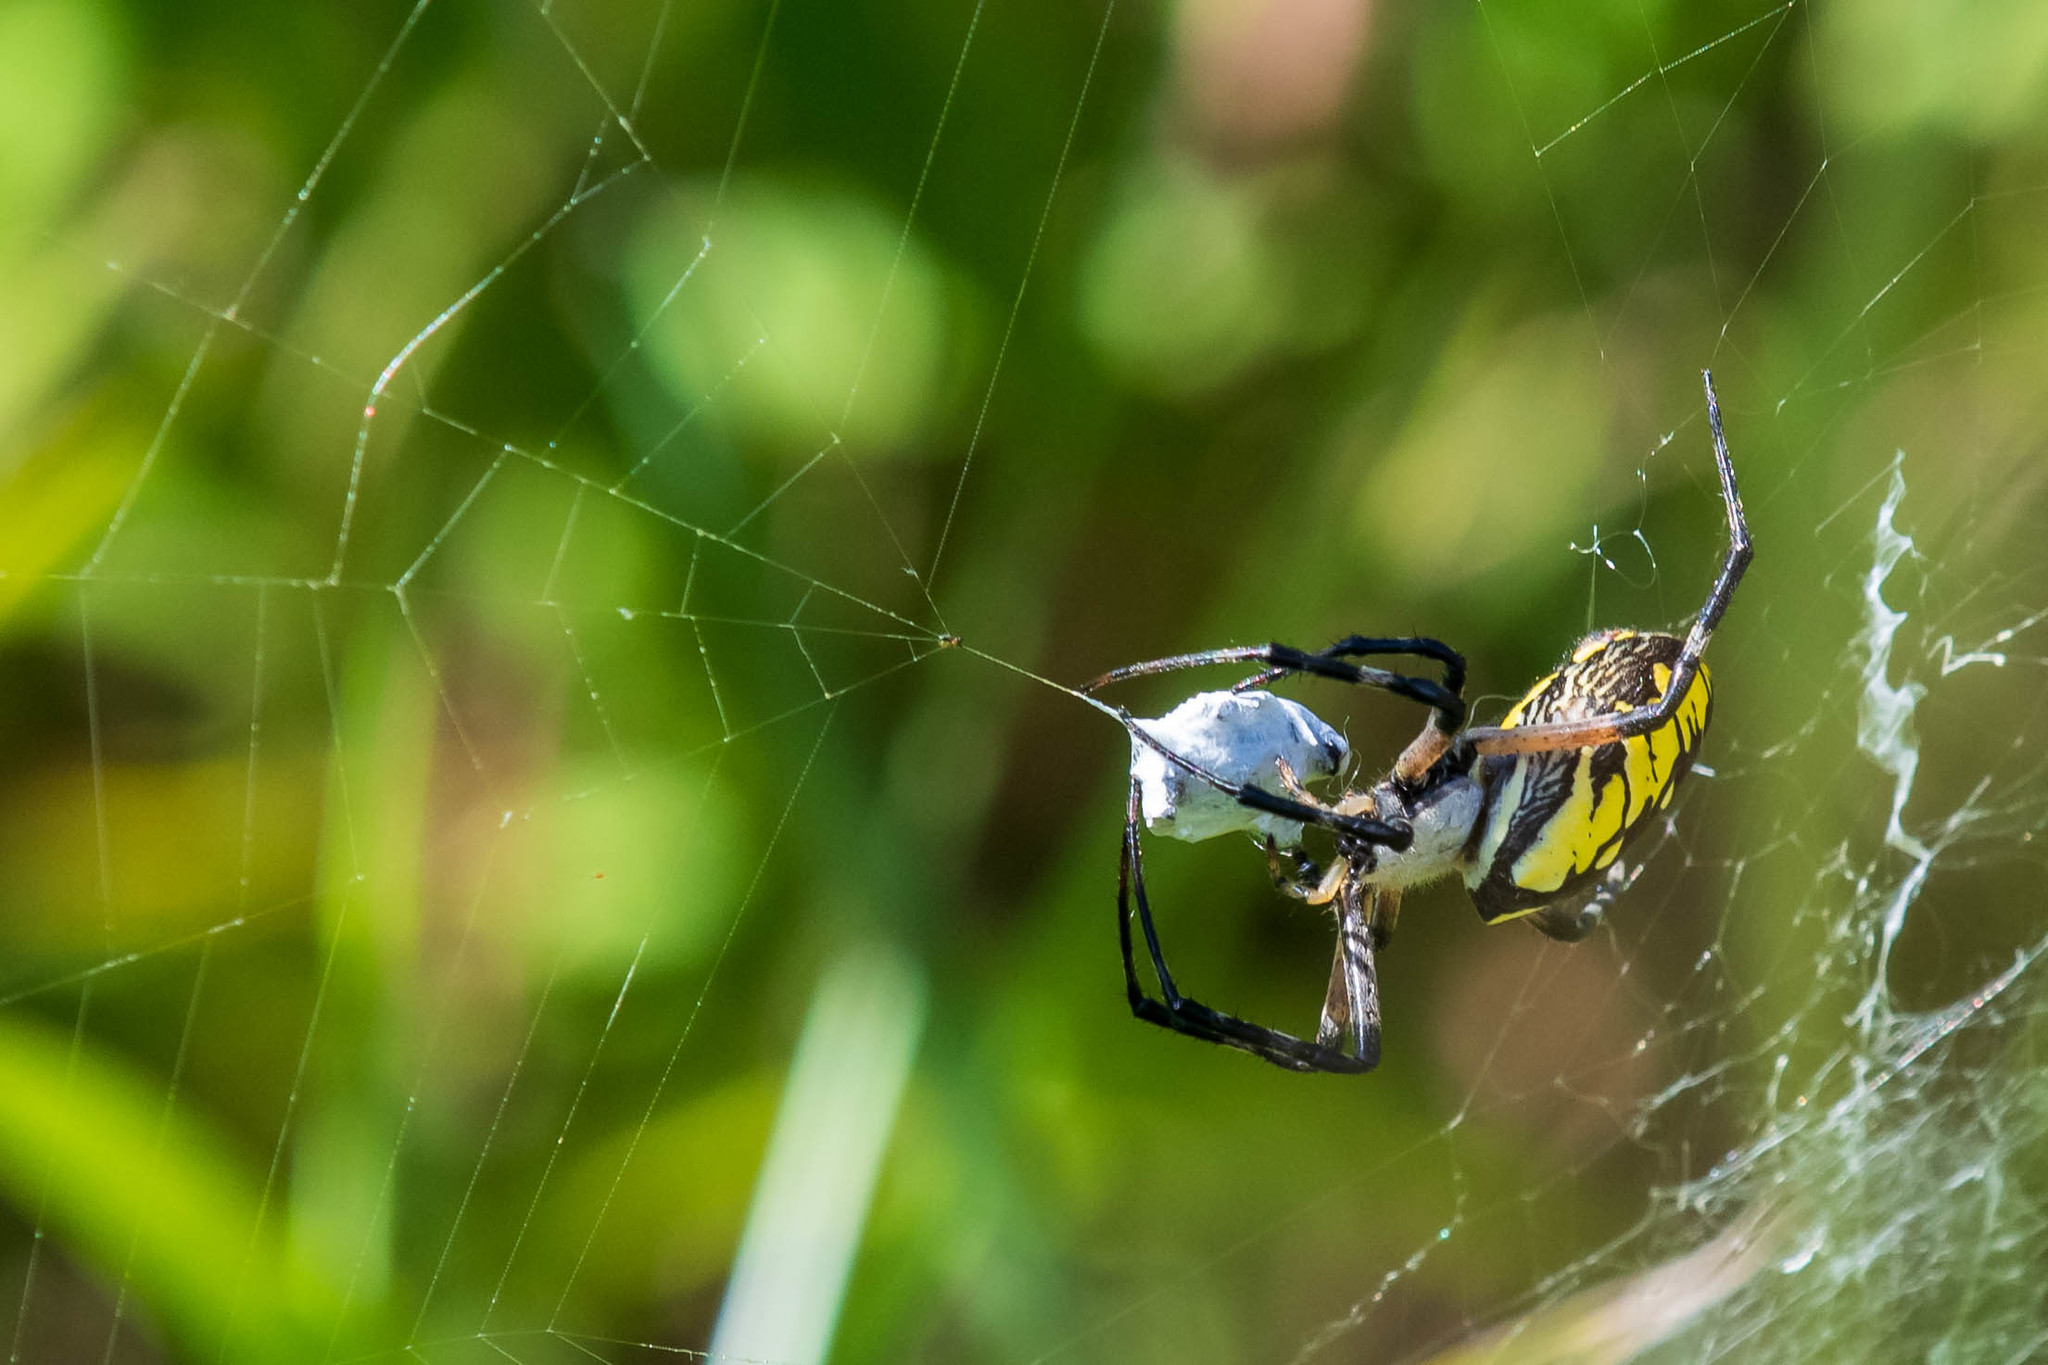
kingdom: Animalia
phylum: Arthropoda
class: Arachnida
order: Araneae
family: Araneidae
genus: Argiope
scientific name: Argiope aurantia
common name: Orb weavers
